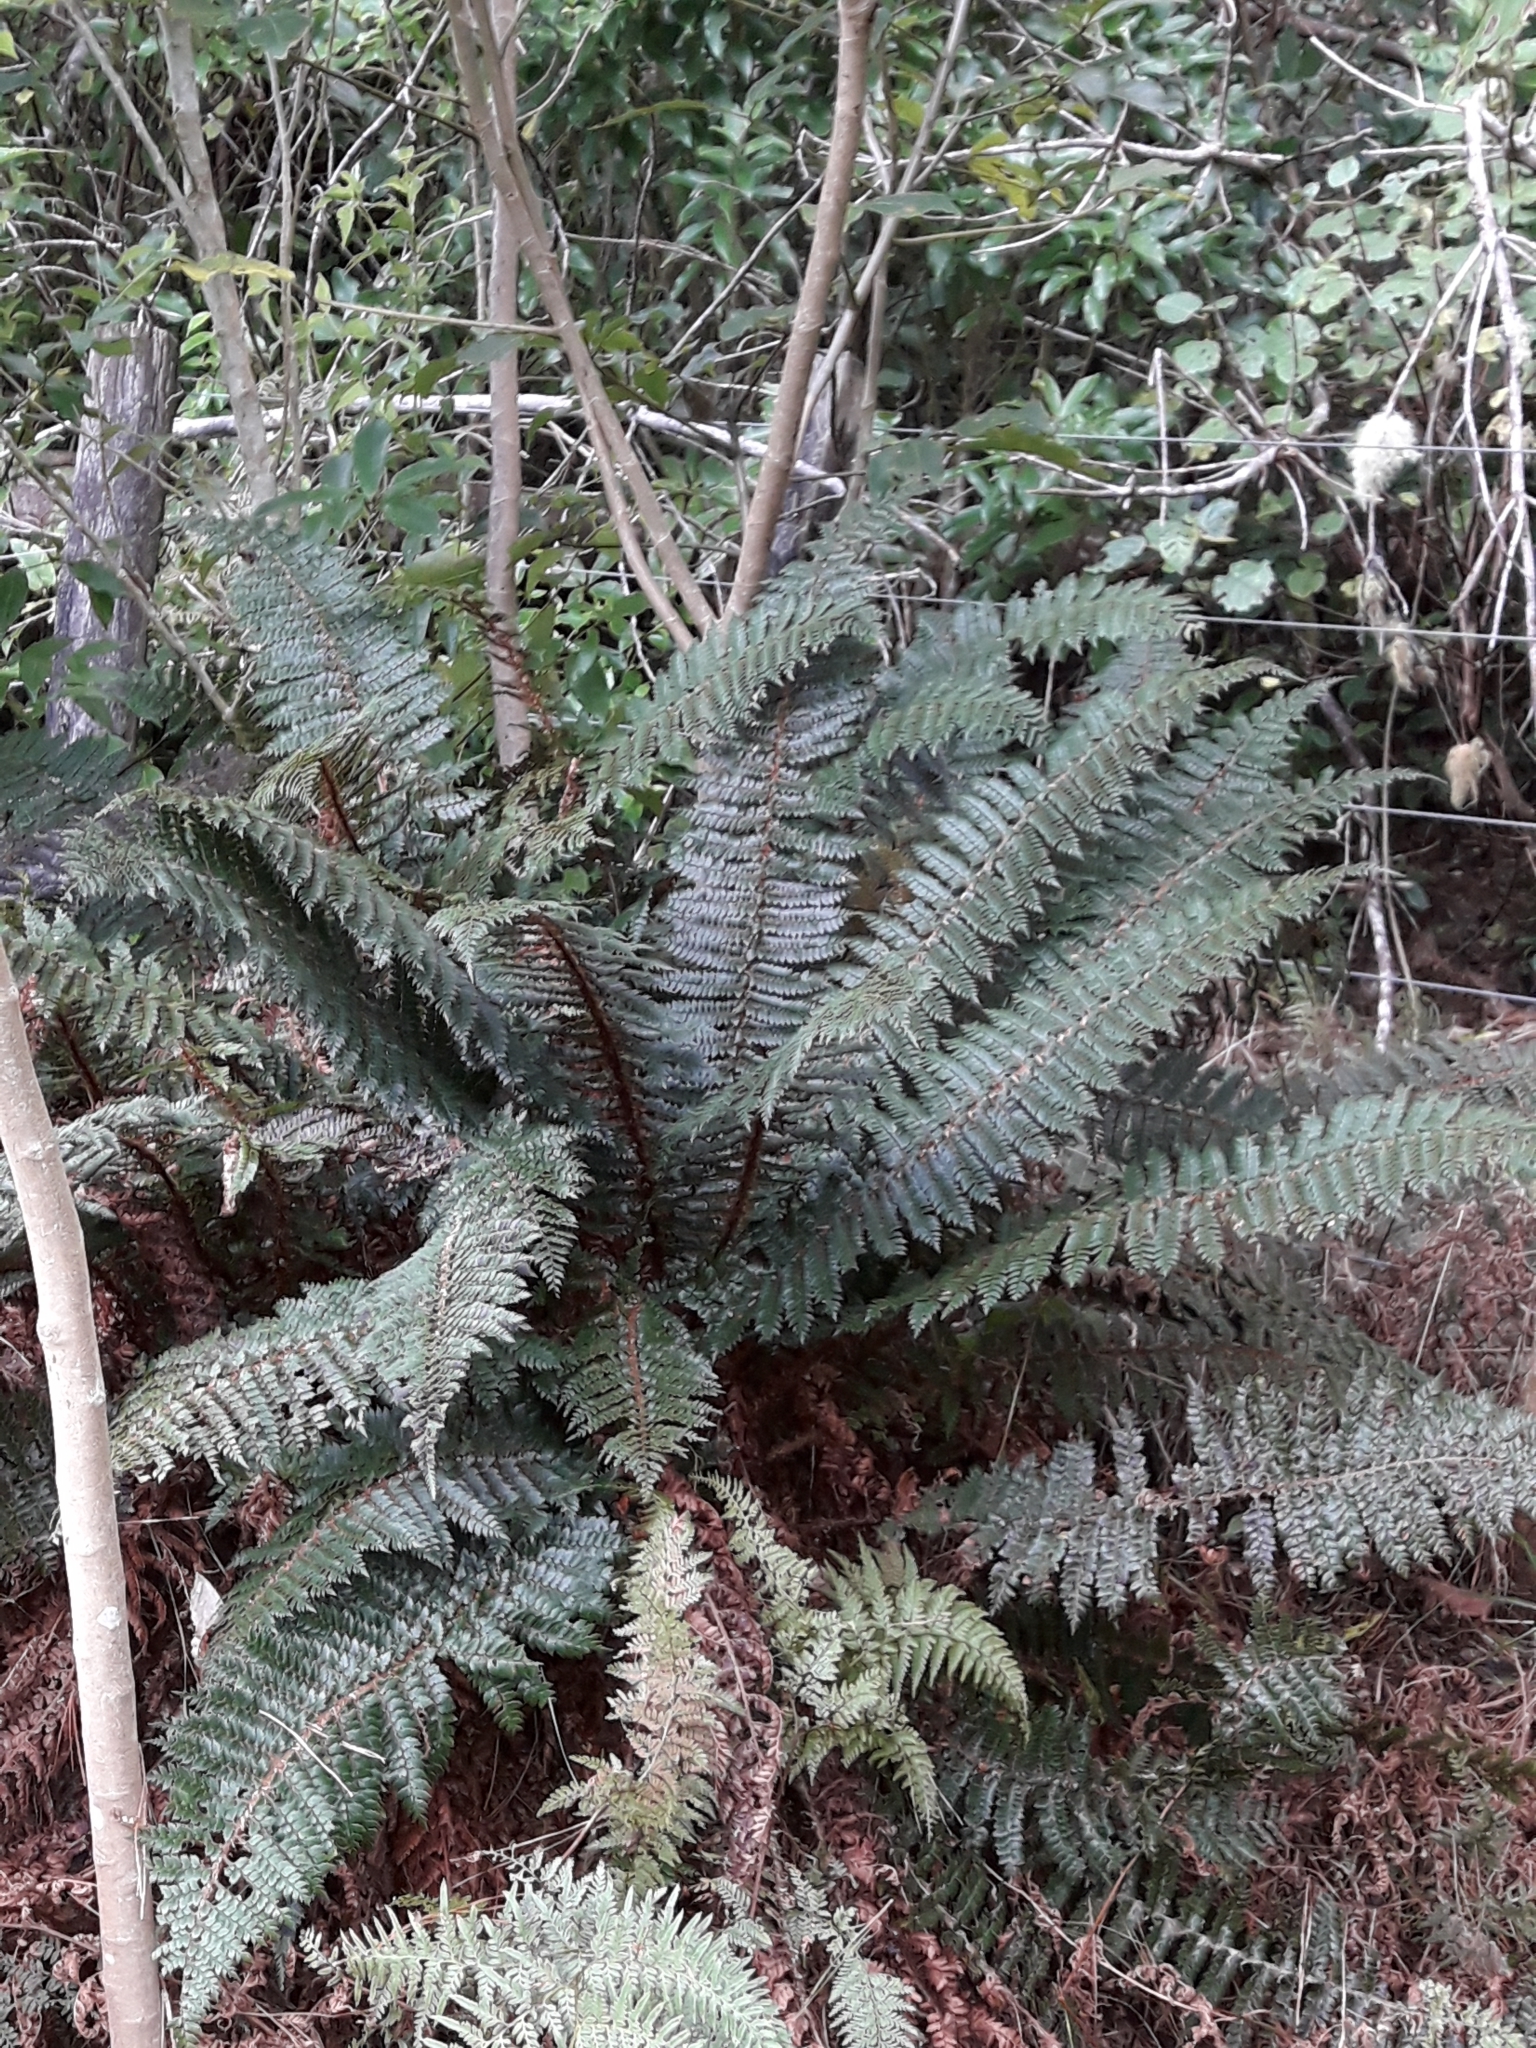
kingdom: Plantae
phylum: Tracheophyta
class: Polypodiopsida
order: Polypodiales
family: Dryopteridaceae
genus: Polystichum
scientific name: Polystichum vestitum
